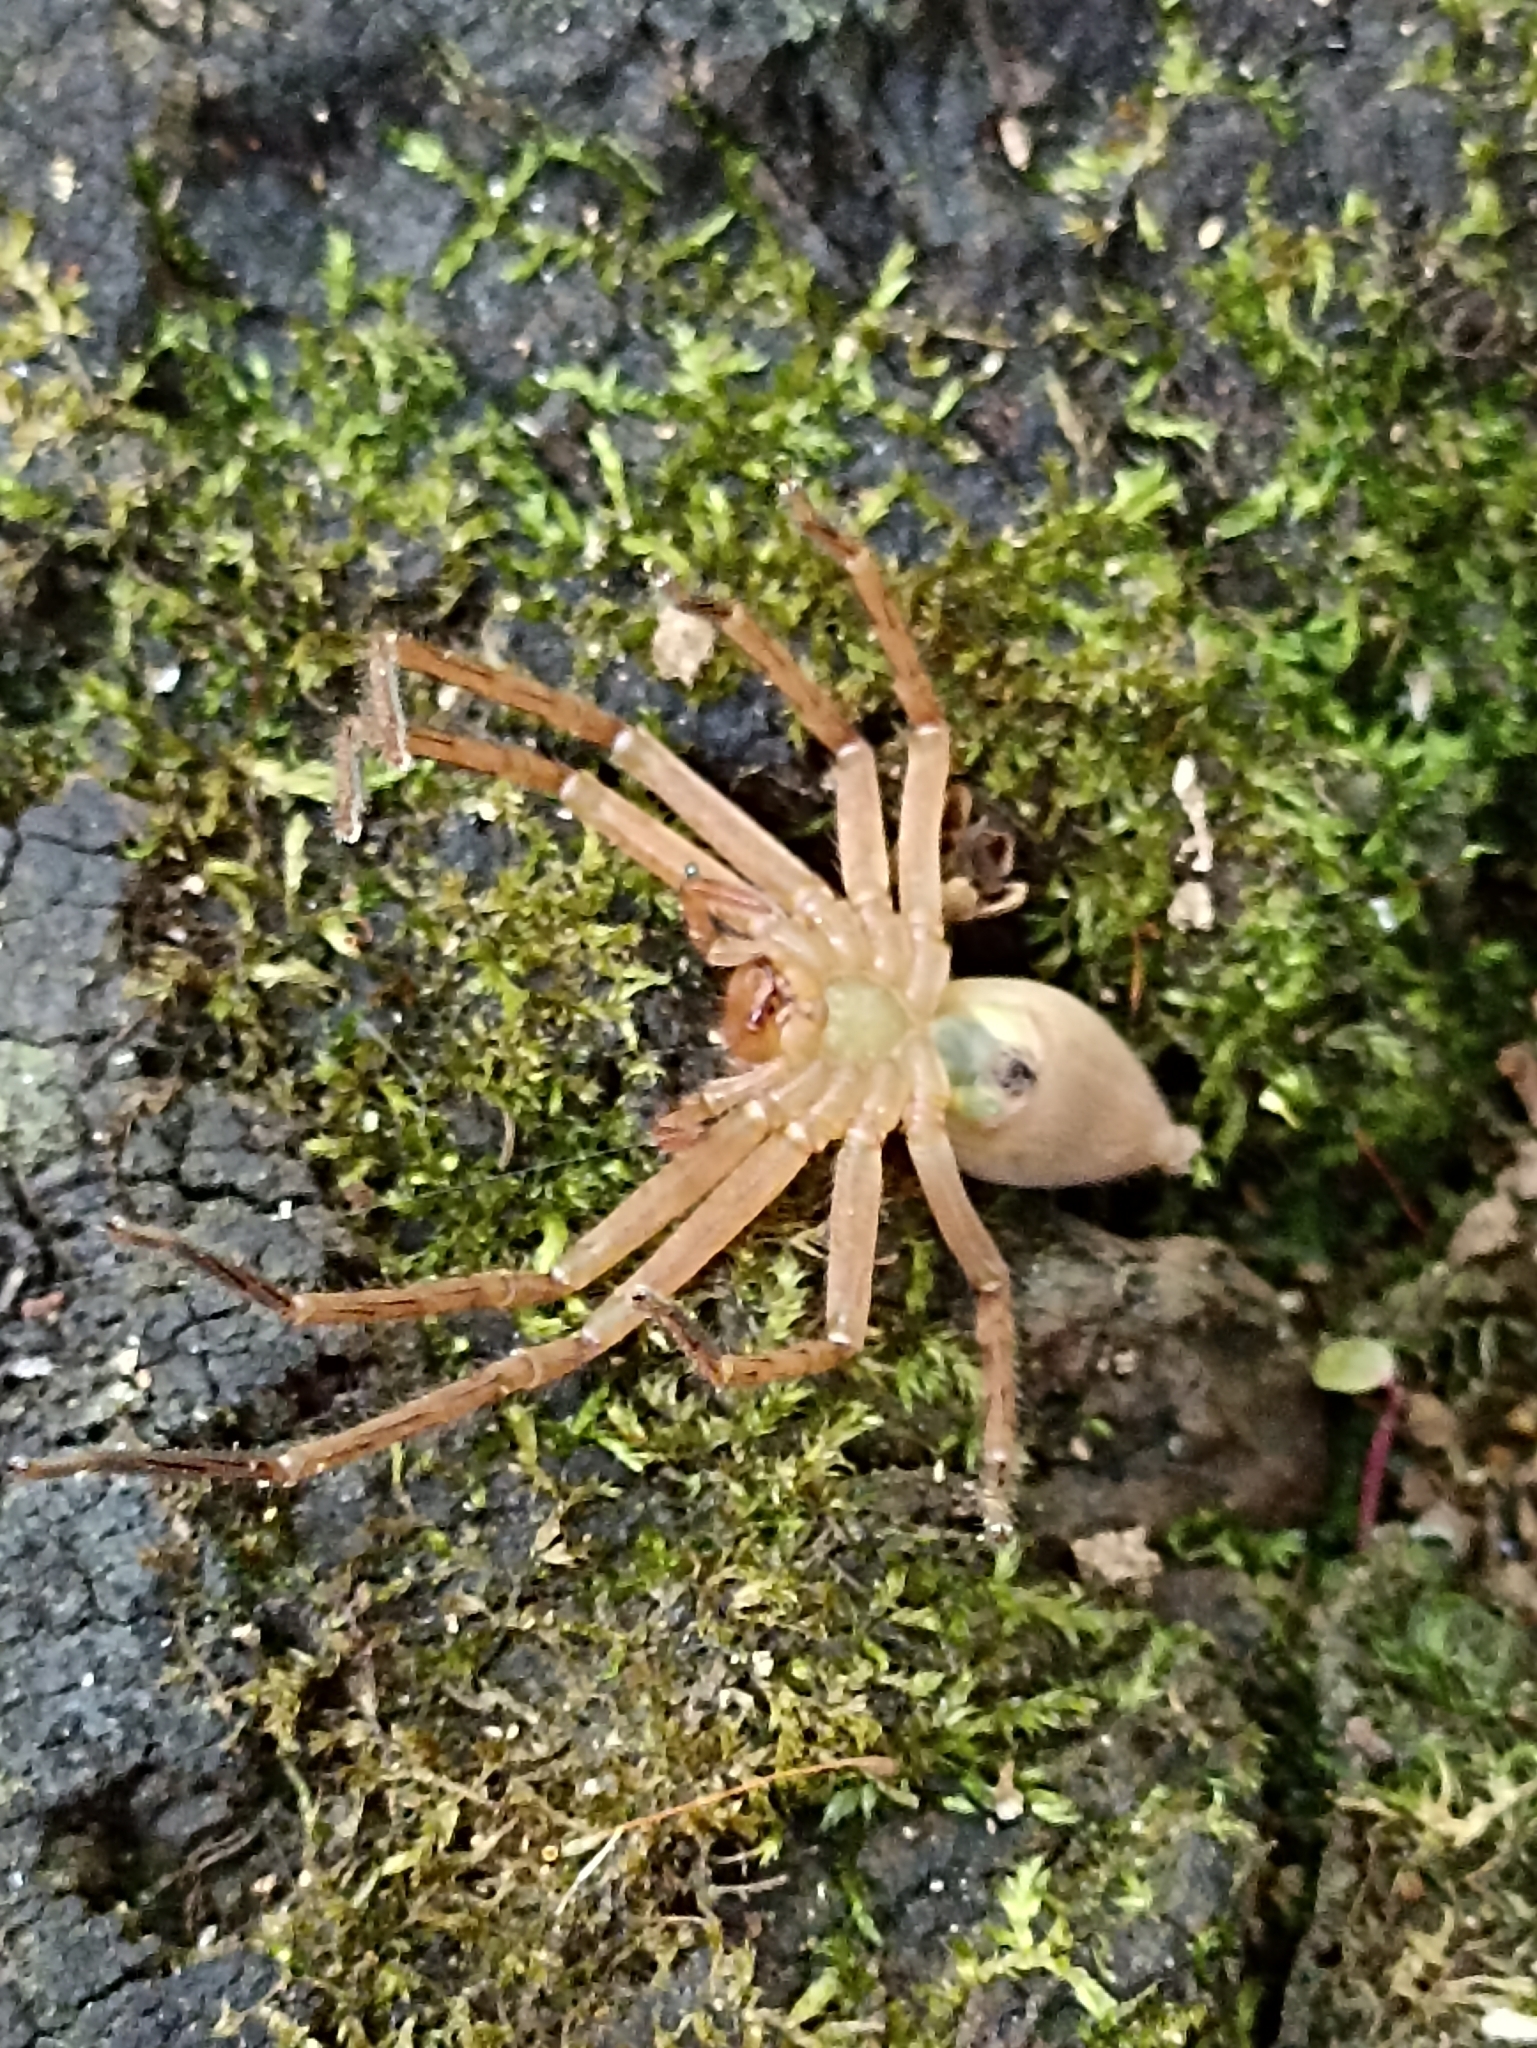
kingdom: Animalia
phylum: Arthropoda
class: Arachnida
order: Araneae
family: Sparassidae
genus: Caayguara
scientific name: Caayguara cupepemassu
